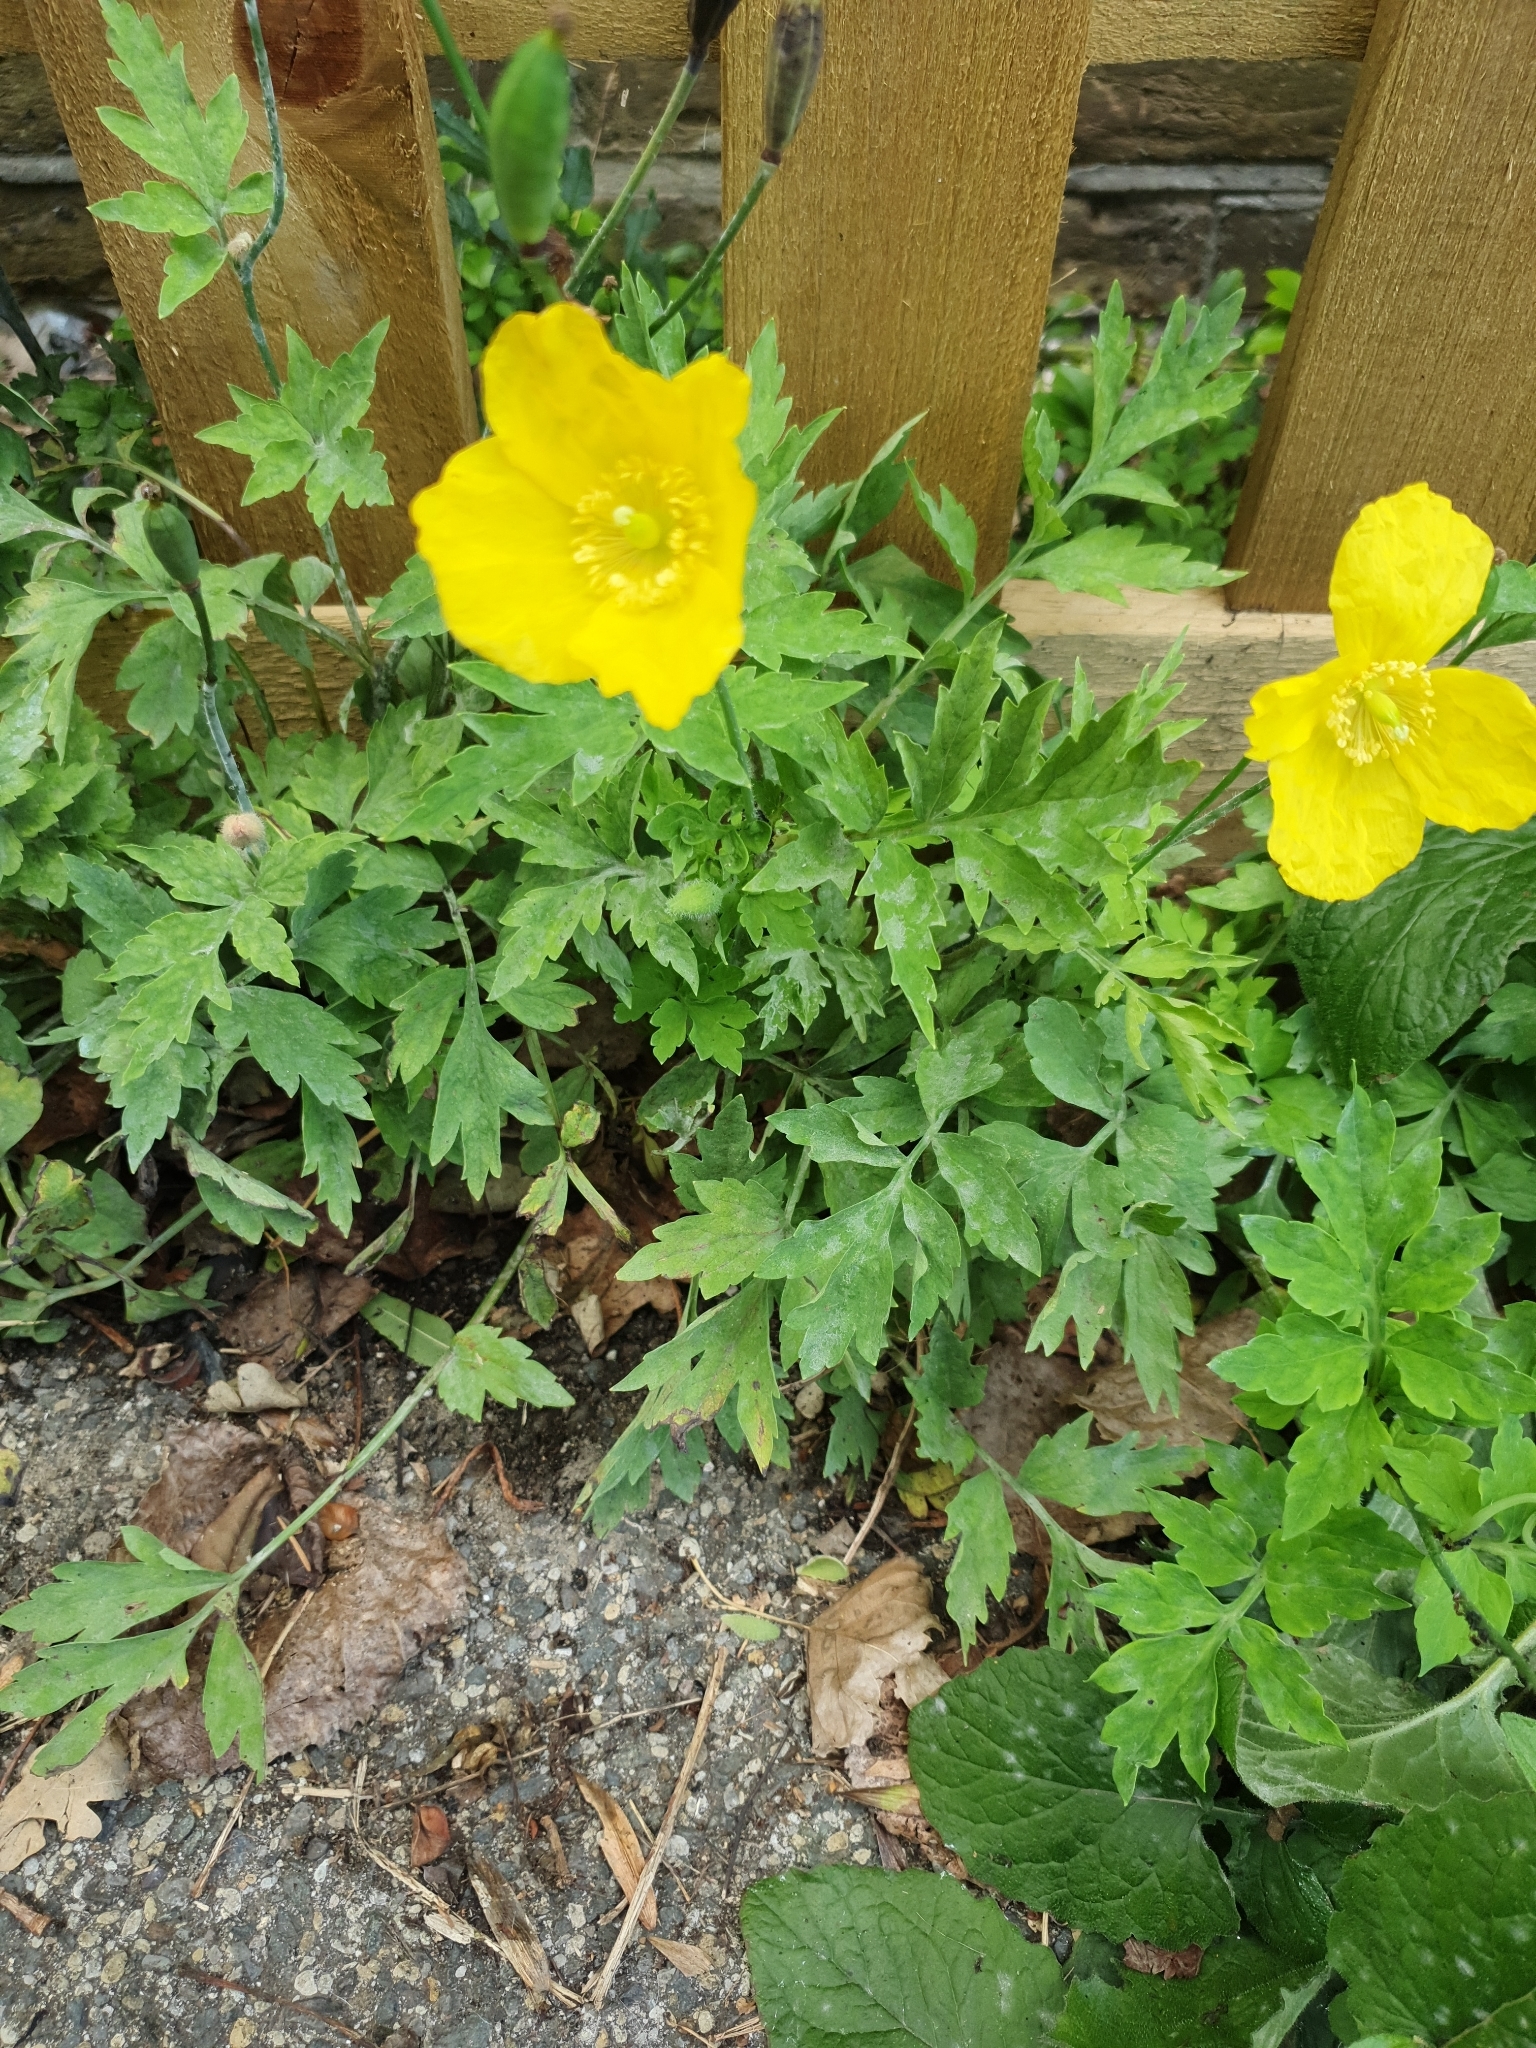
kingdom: Plantae
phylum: Tracheophyta
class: Magnoliopsida
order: Ranunculales
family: Papaveraceae
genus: Papaver
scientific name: Papaver cambricum
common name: Poppy
